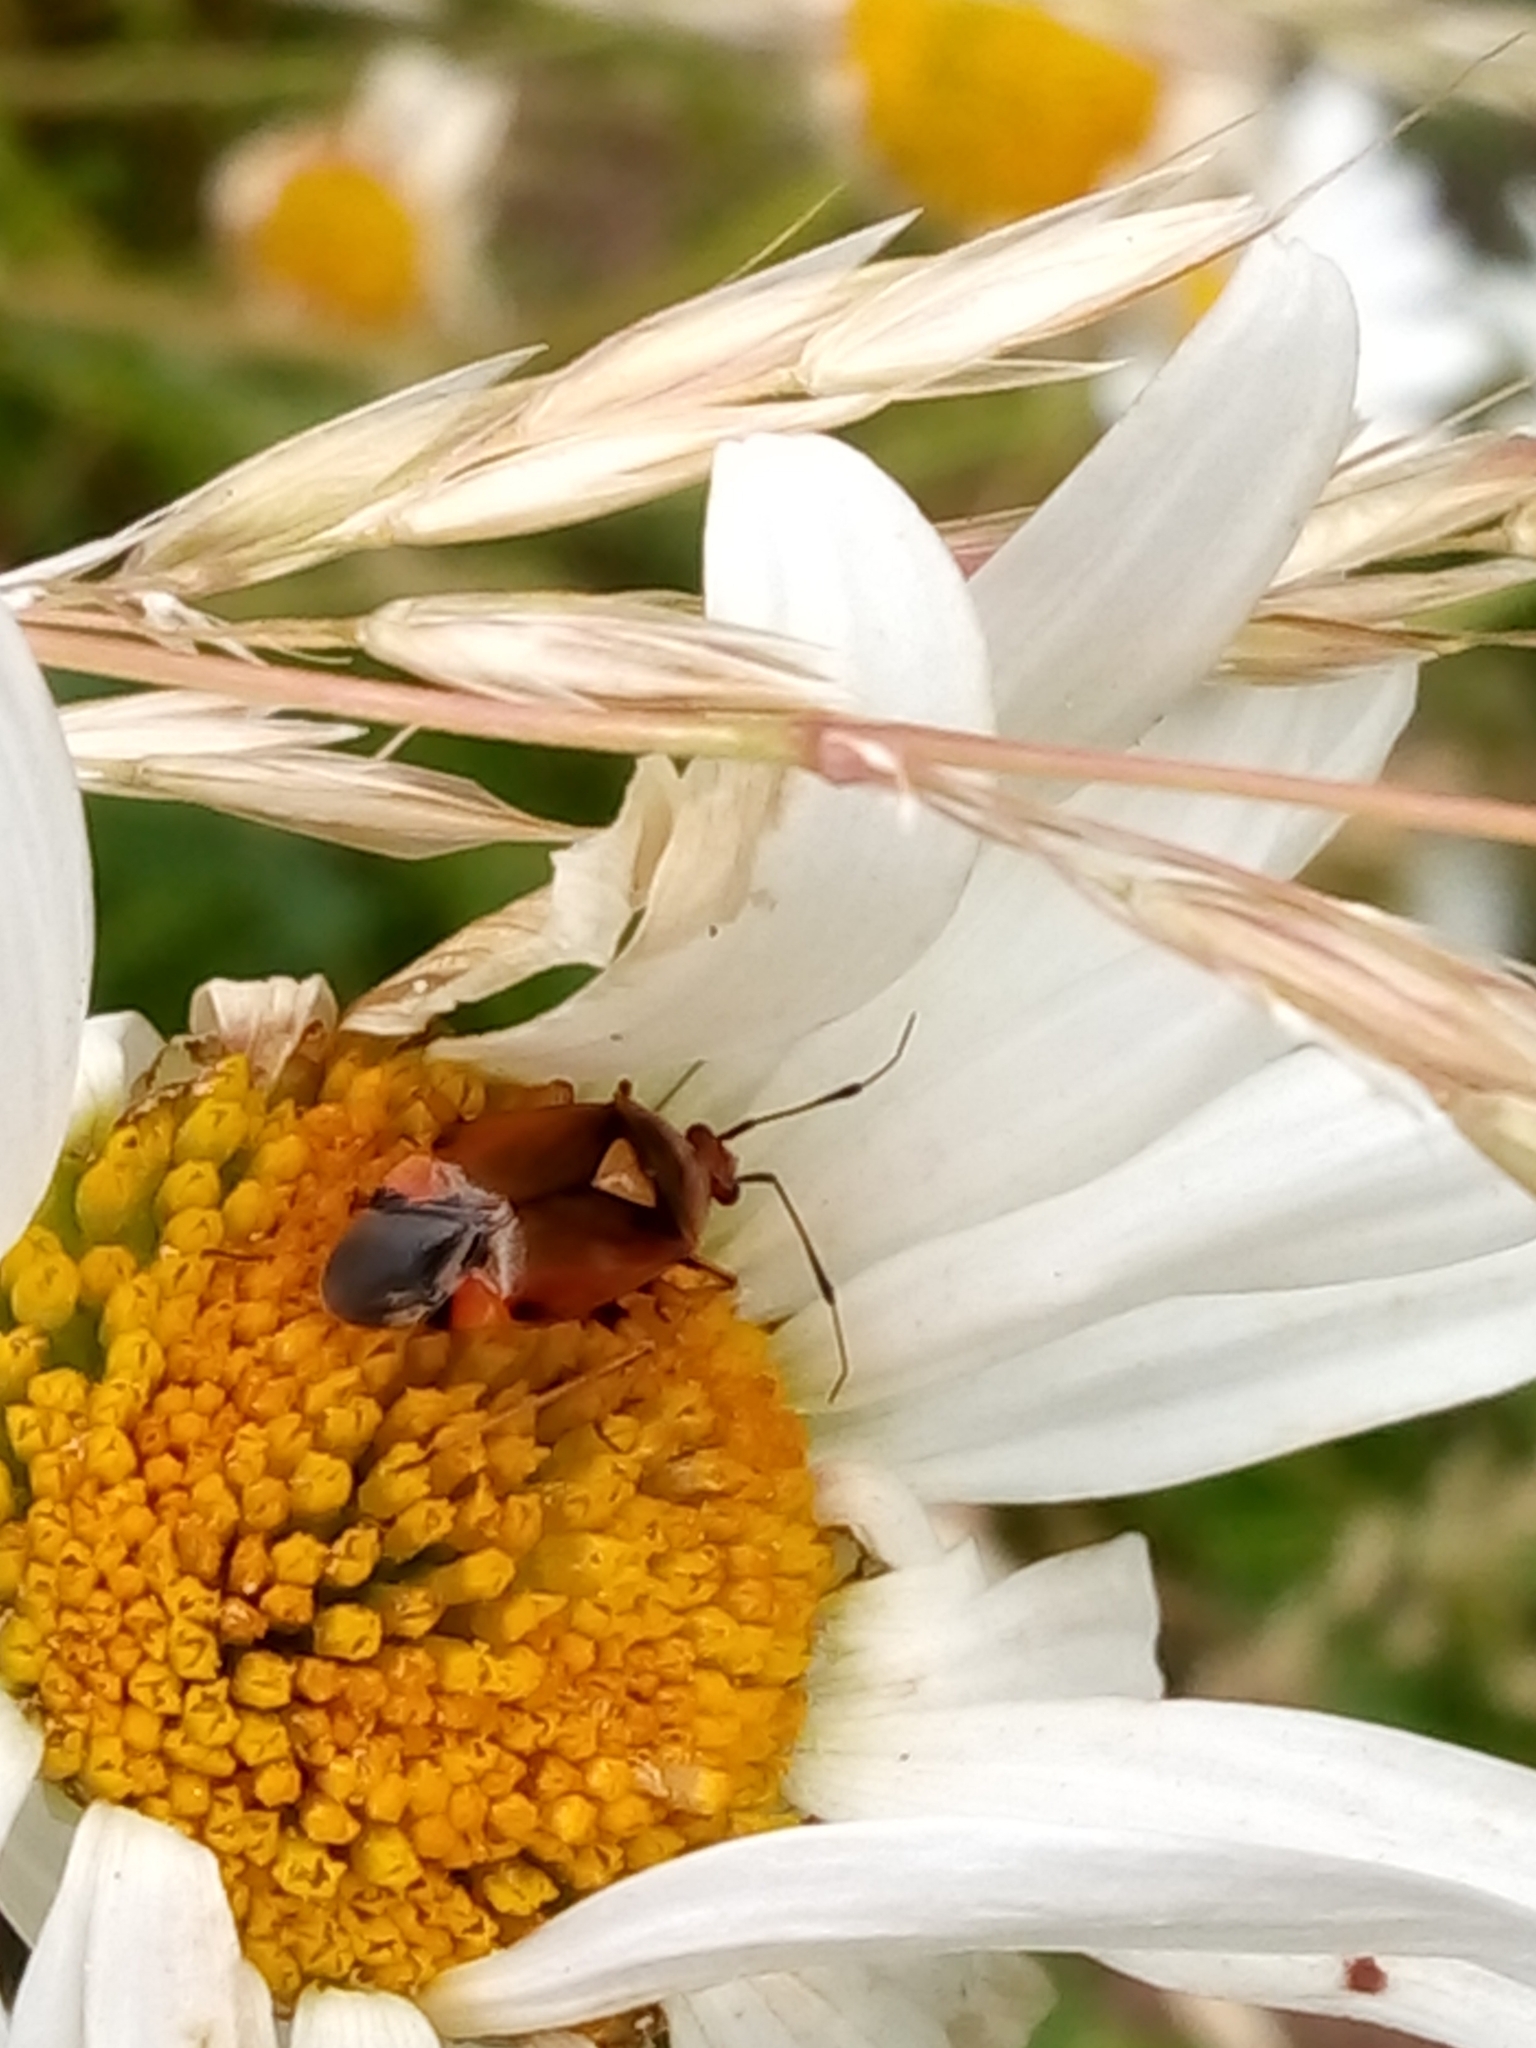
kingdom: Animalia
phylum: Arthropoda
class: Insecta
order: Hemiptera
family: Miridae
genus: Deraeocoris
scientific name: Deraeocoris ruber
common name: Plant bug
